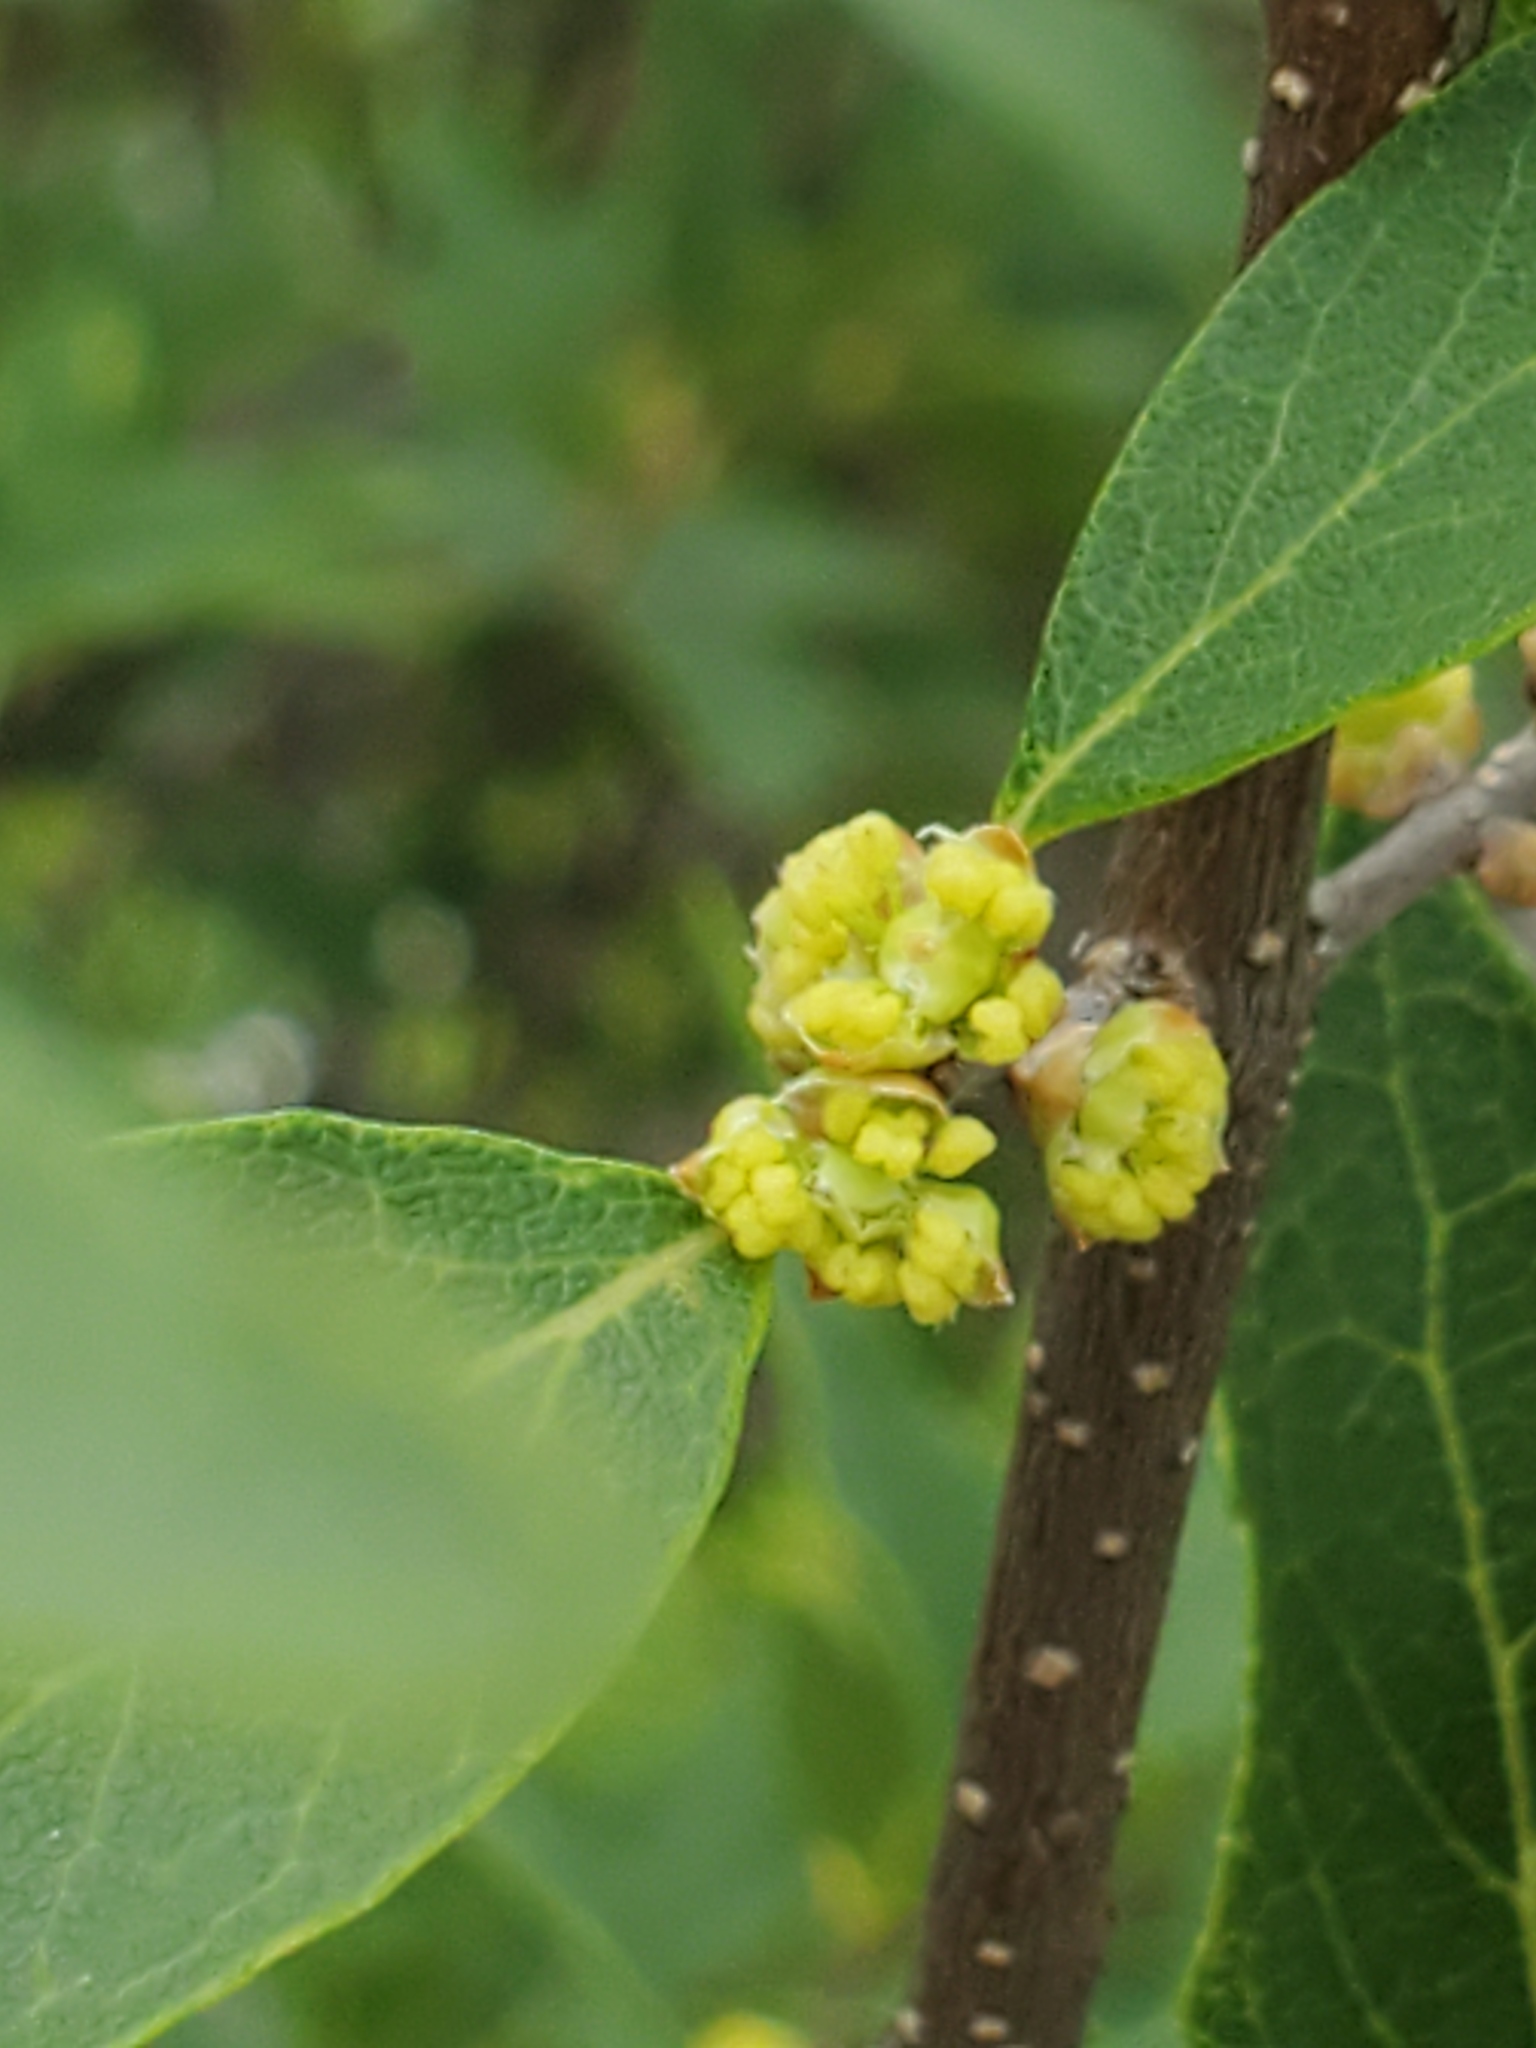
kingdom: Plantae
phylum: Tracheophyta
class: Magnoliopsida
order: Lamiales
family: Oleaceae
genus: Forestiera
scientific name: Forestiera reticulata
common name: Netleaf swamp-privet
